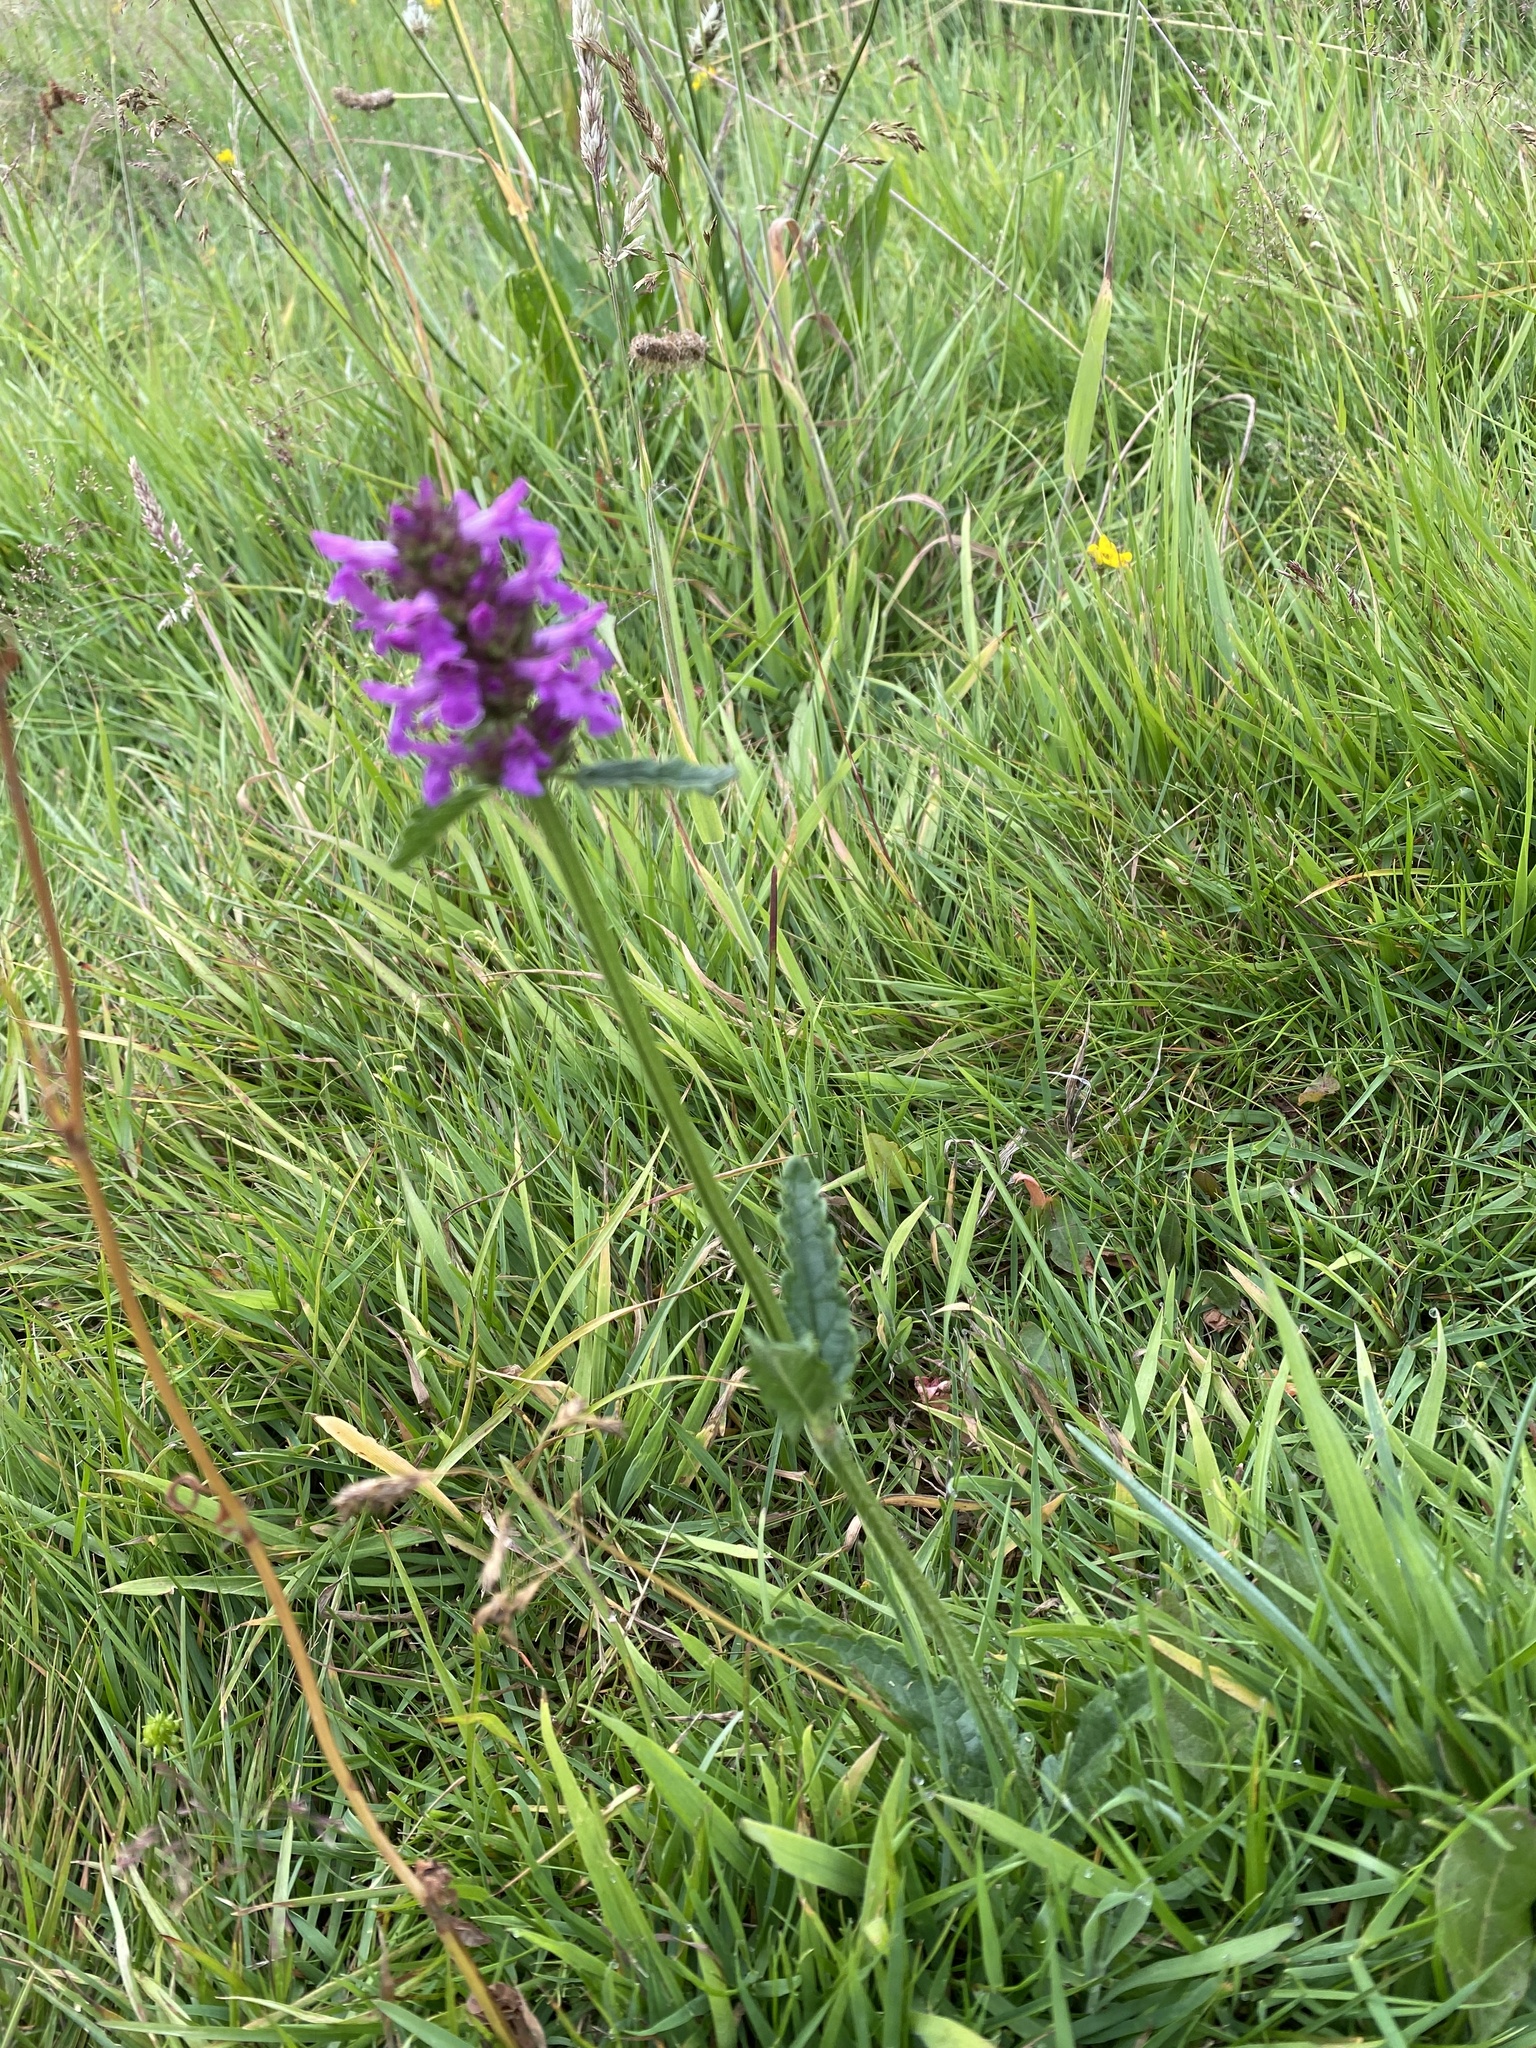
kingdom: Plantae
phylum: Tracheophyta
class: Magnoliopsida
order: Lamiales
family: Lamiaceae
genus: Betonica
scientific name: Betonica officinalis
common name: Bishop's-wort
